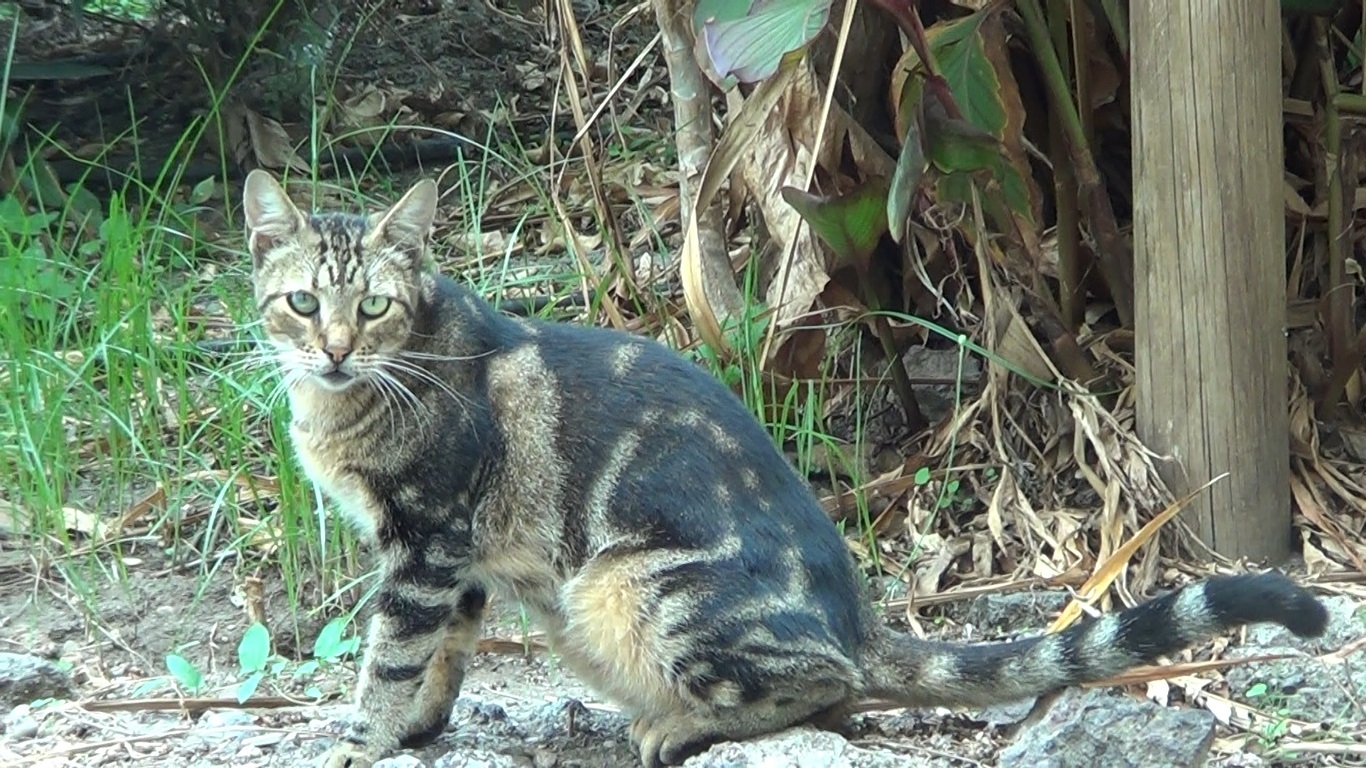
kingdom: Animalia
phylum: Chordata
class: Mammalia
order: Carnivora
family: Felidae
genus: Felis
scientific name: Felis catus
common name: Domestic cat
